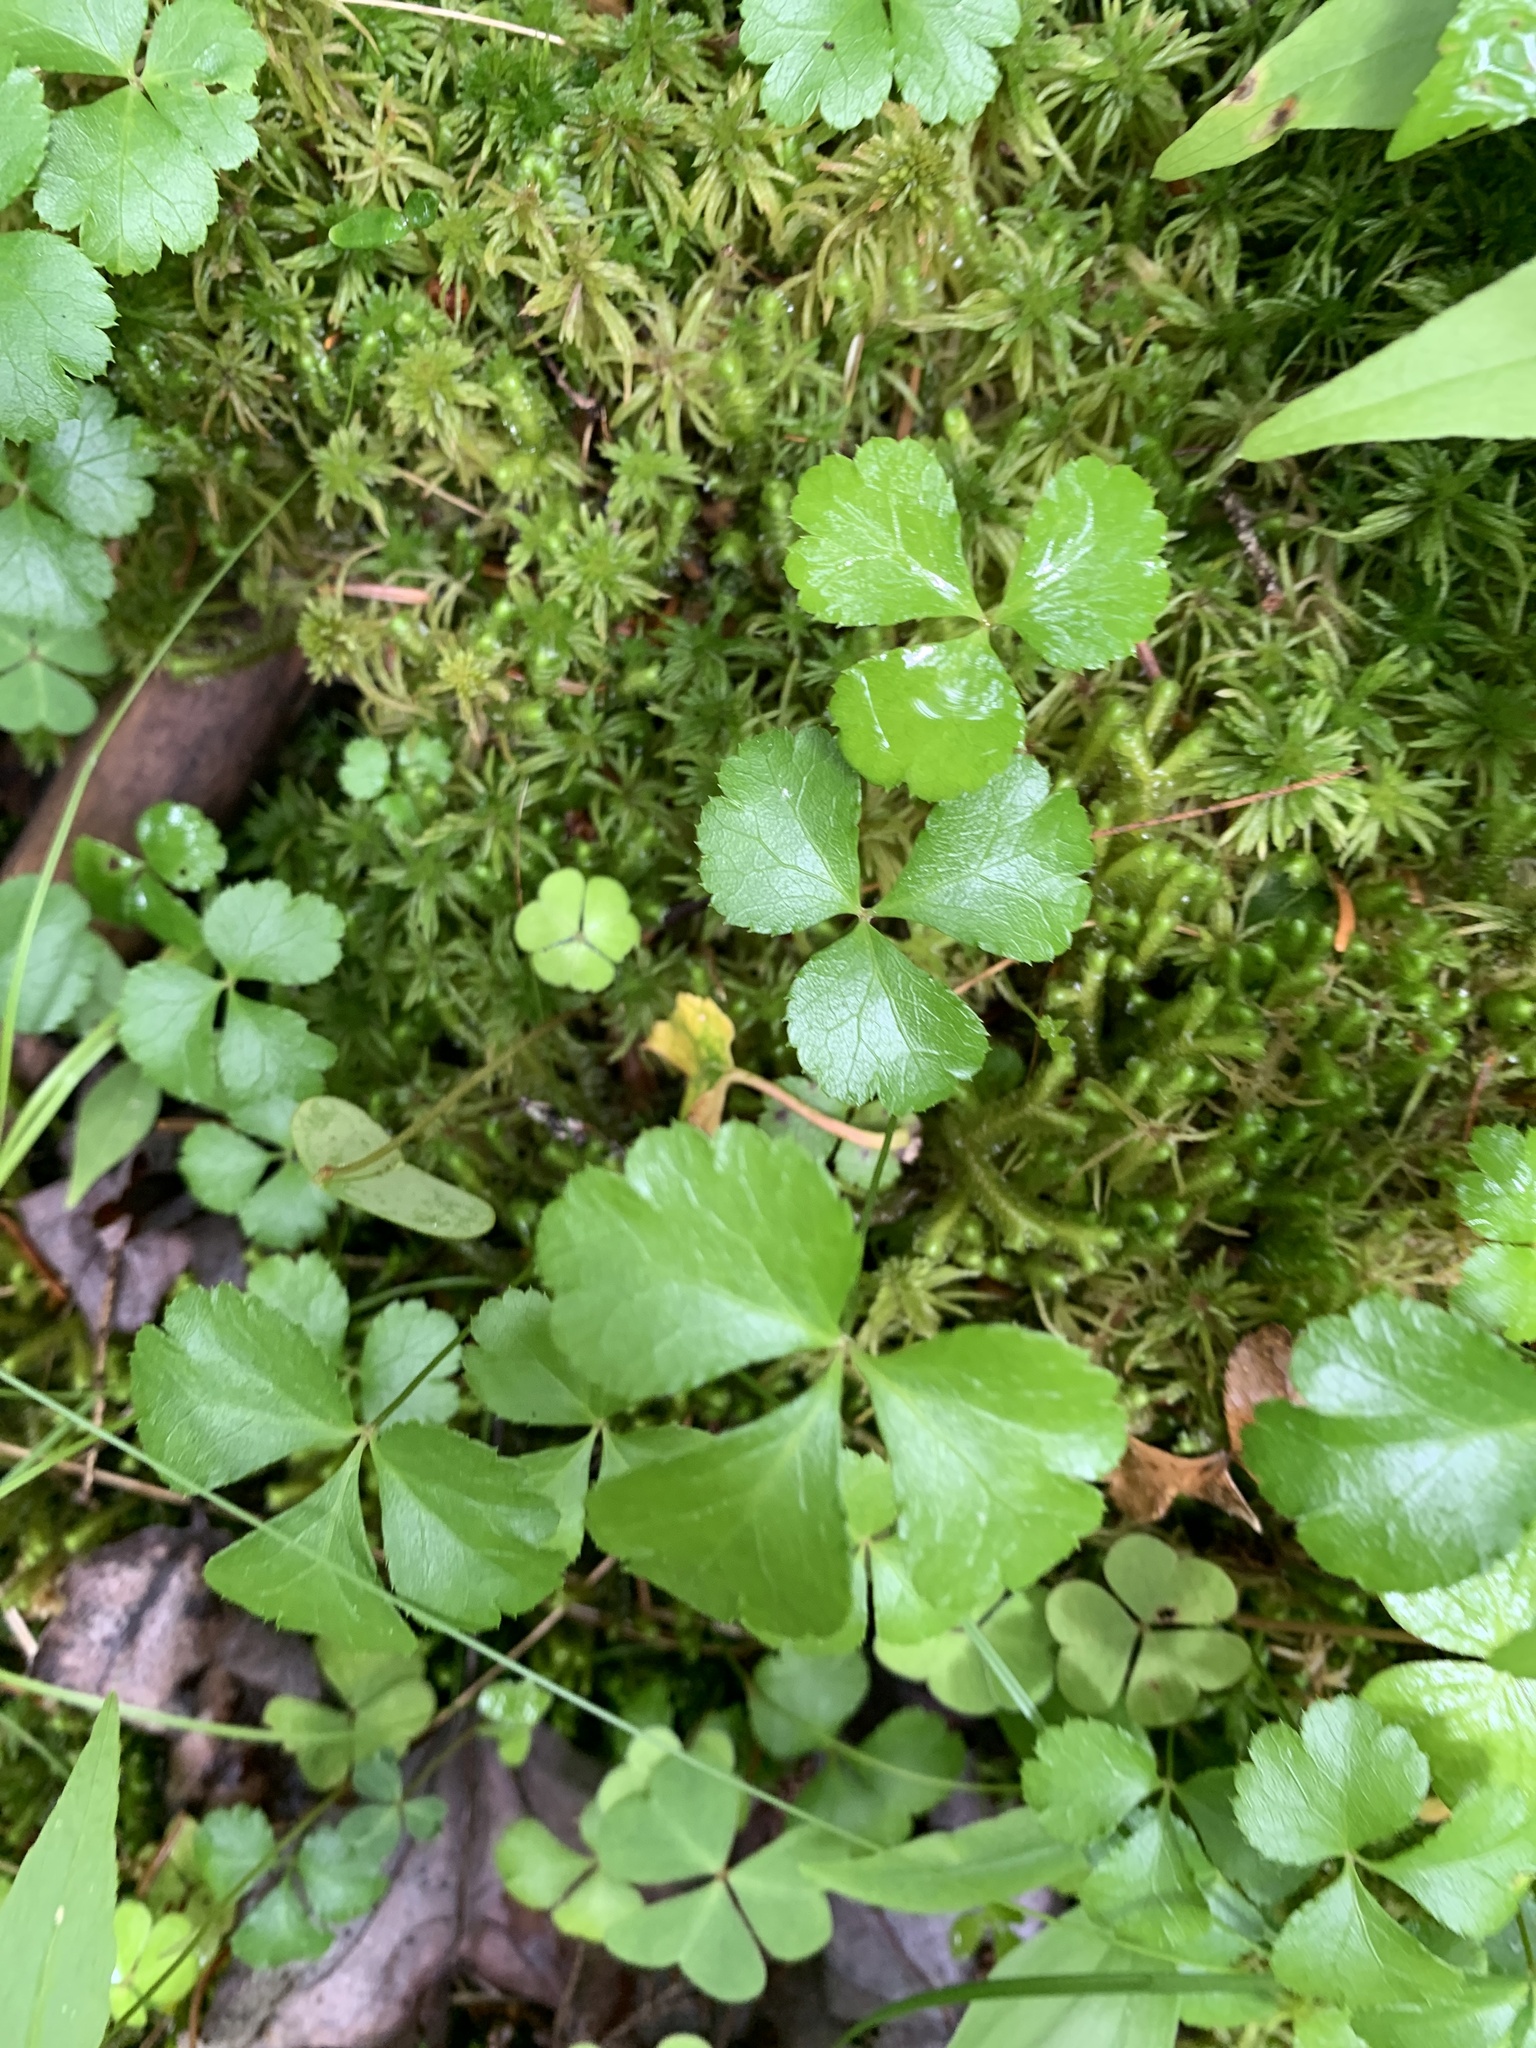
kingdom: Plantae
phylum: Tracheophyta
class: Magnoliopsida
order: Ranunculales
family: Ranunculaceae
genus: Coptis
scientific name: Coptis trifolia
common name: Canker-root
